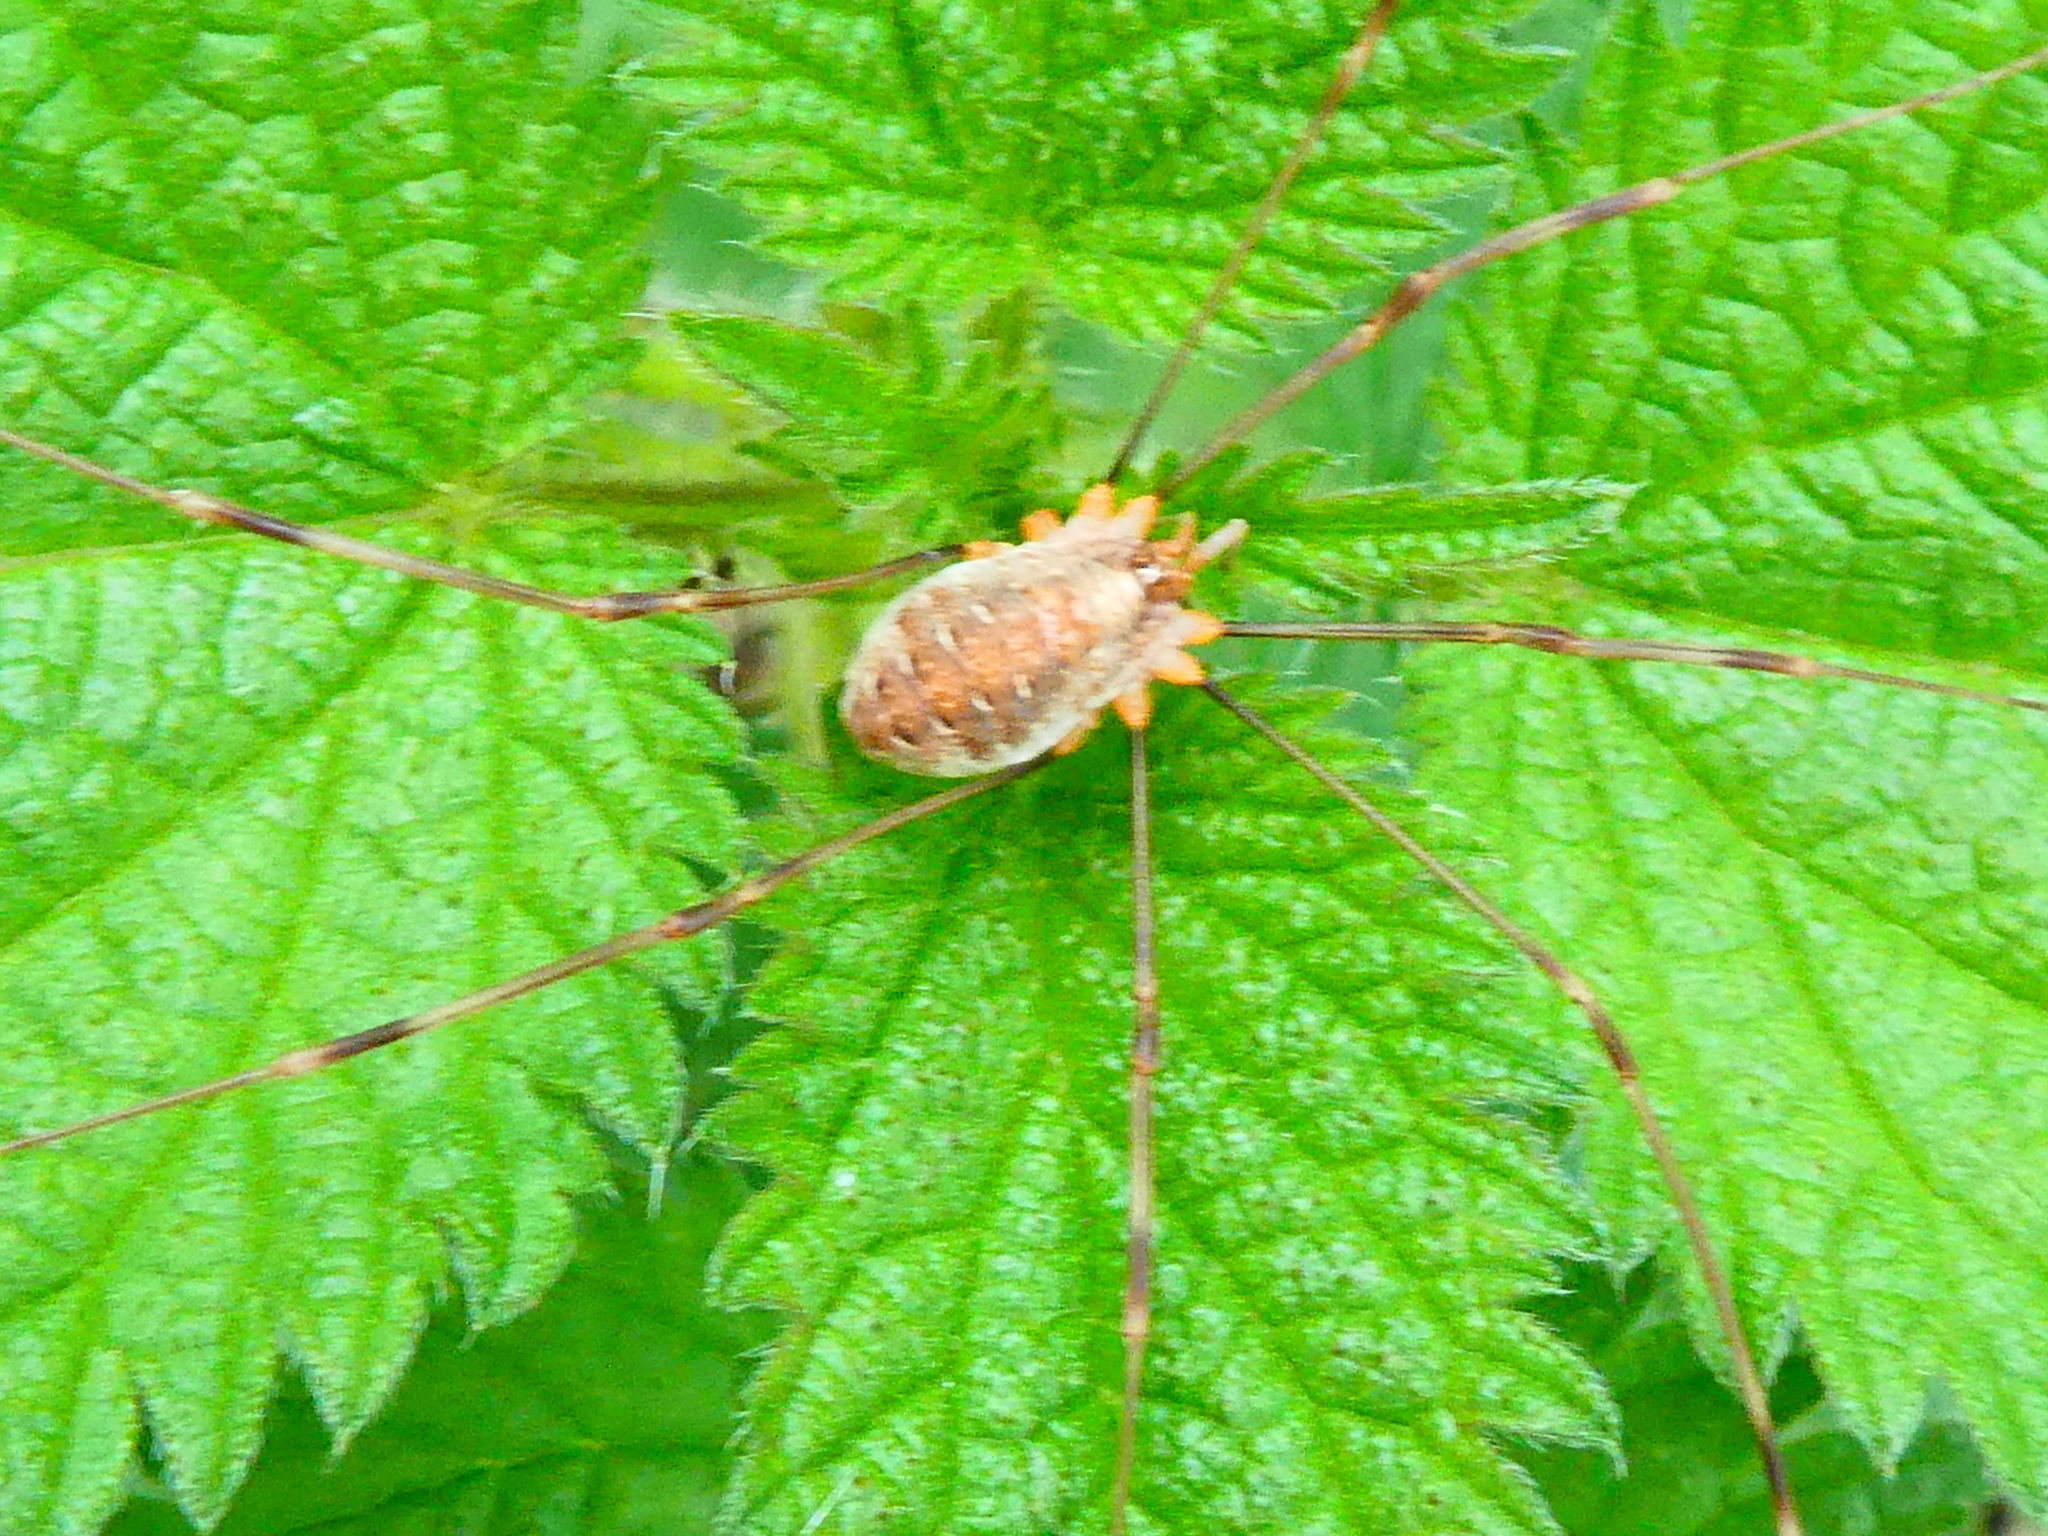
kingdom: Animalia
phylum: Arthropoda
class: Arachnida
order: Opiliones
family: Phalangiidae
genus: Opilio
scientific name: Opilio canestrinii
